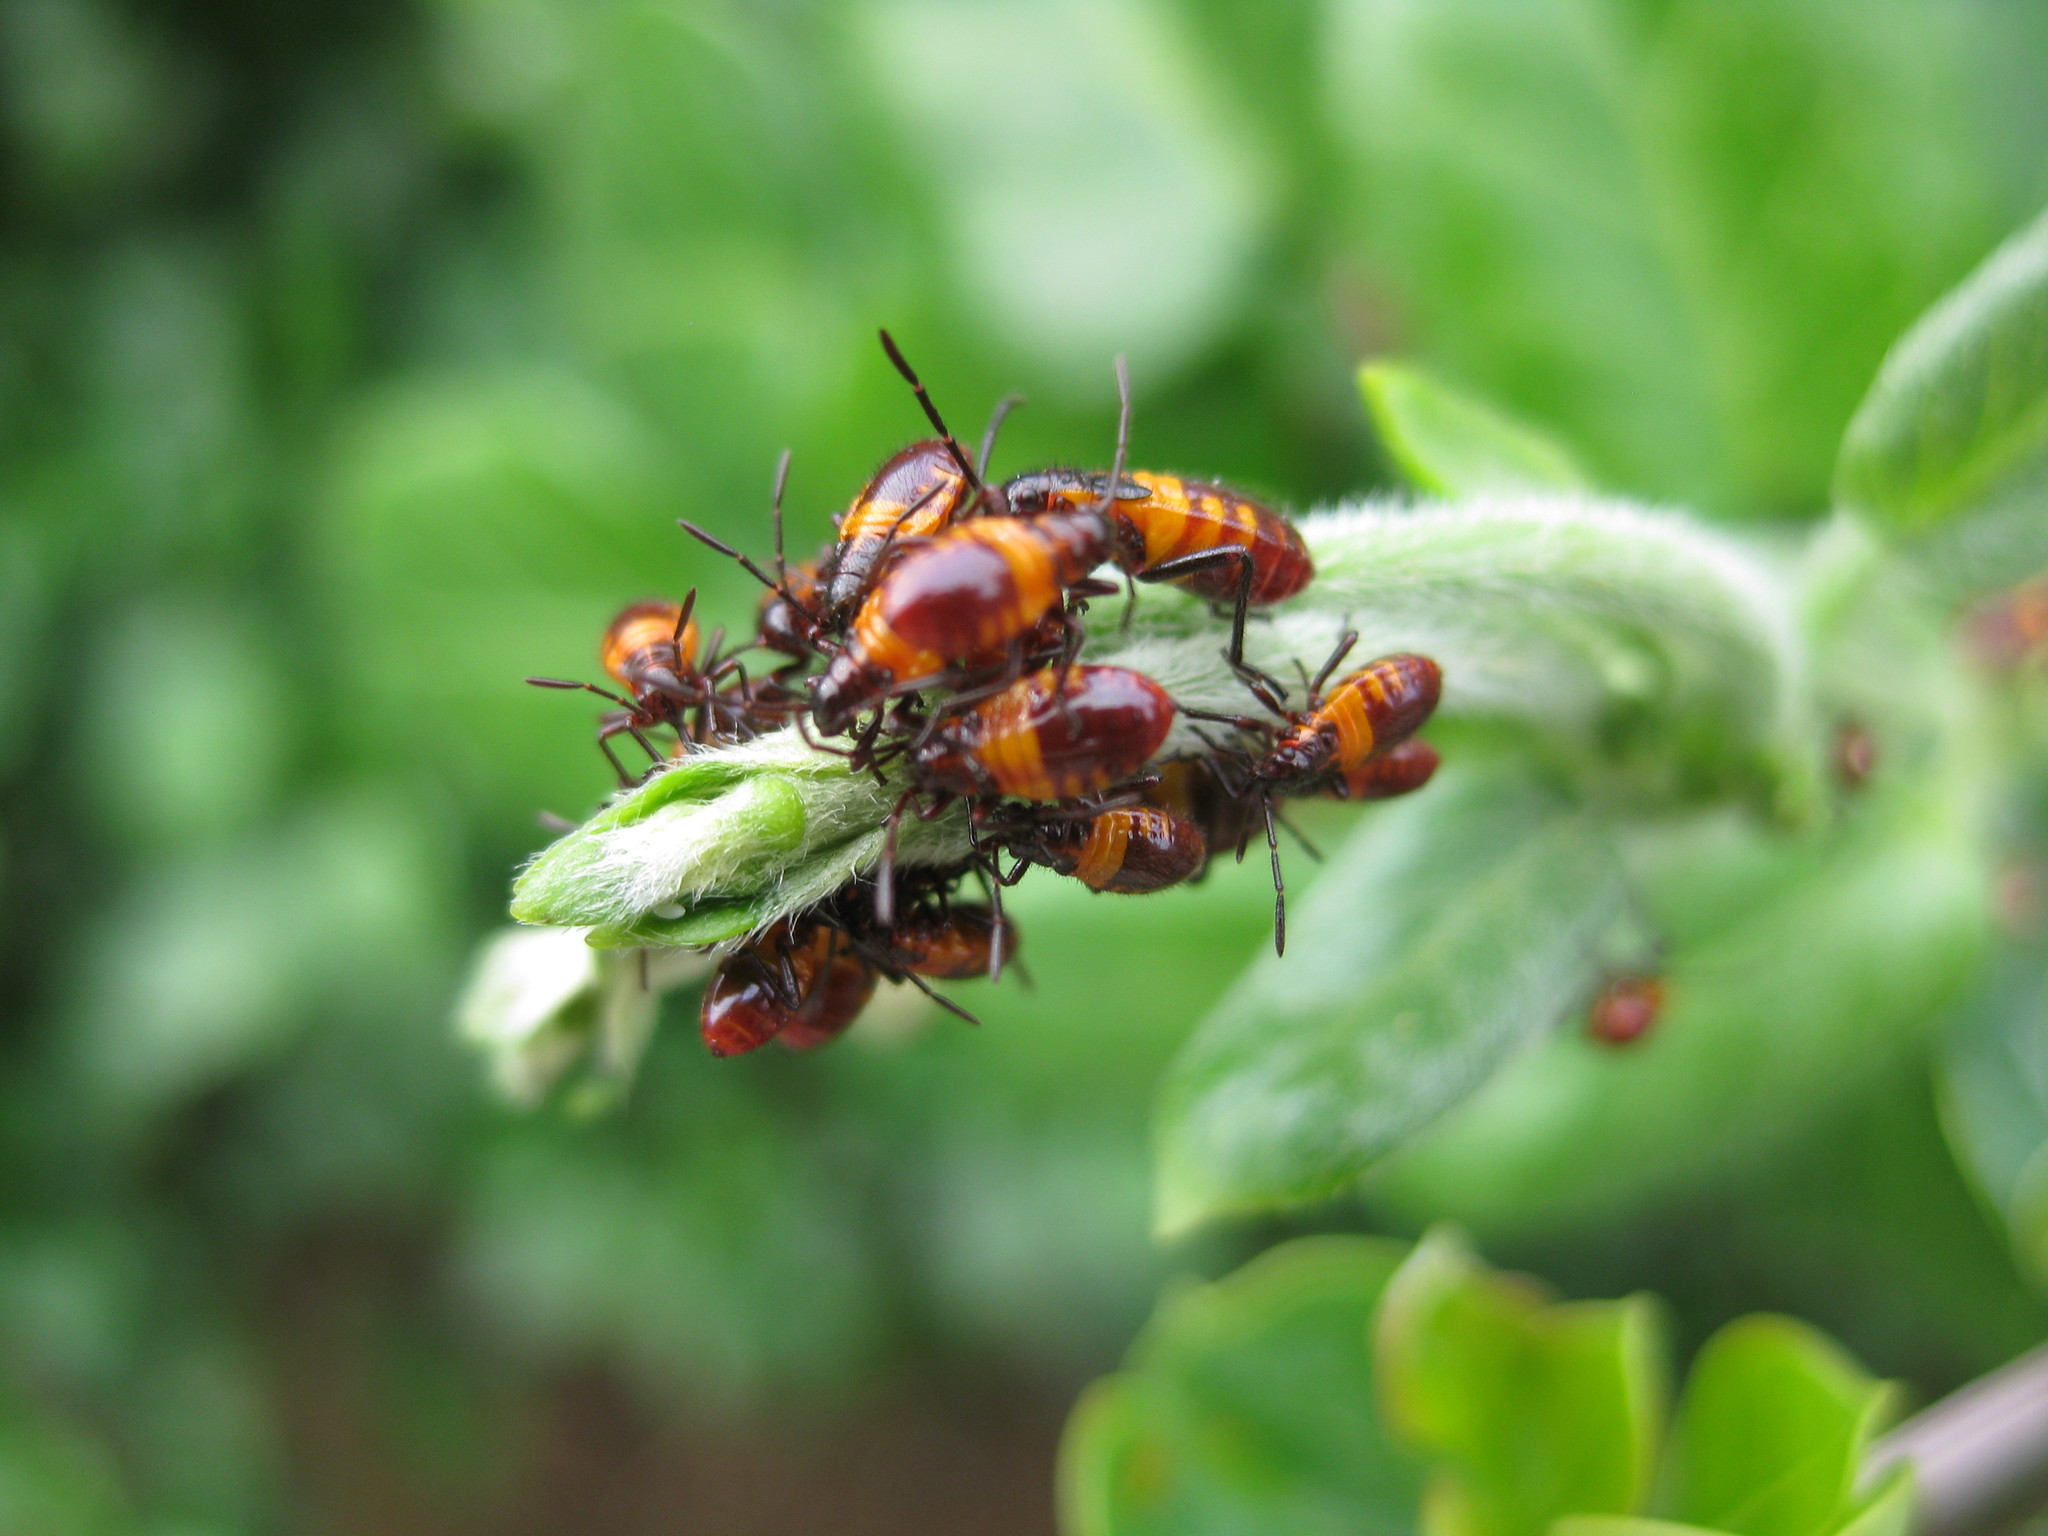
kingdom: Animalia
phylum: Arthropoda
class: Insecta
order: Hemiptera
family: Lygaeidae
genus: Oncopeltus
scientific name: Oncopeltus famelicus
